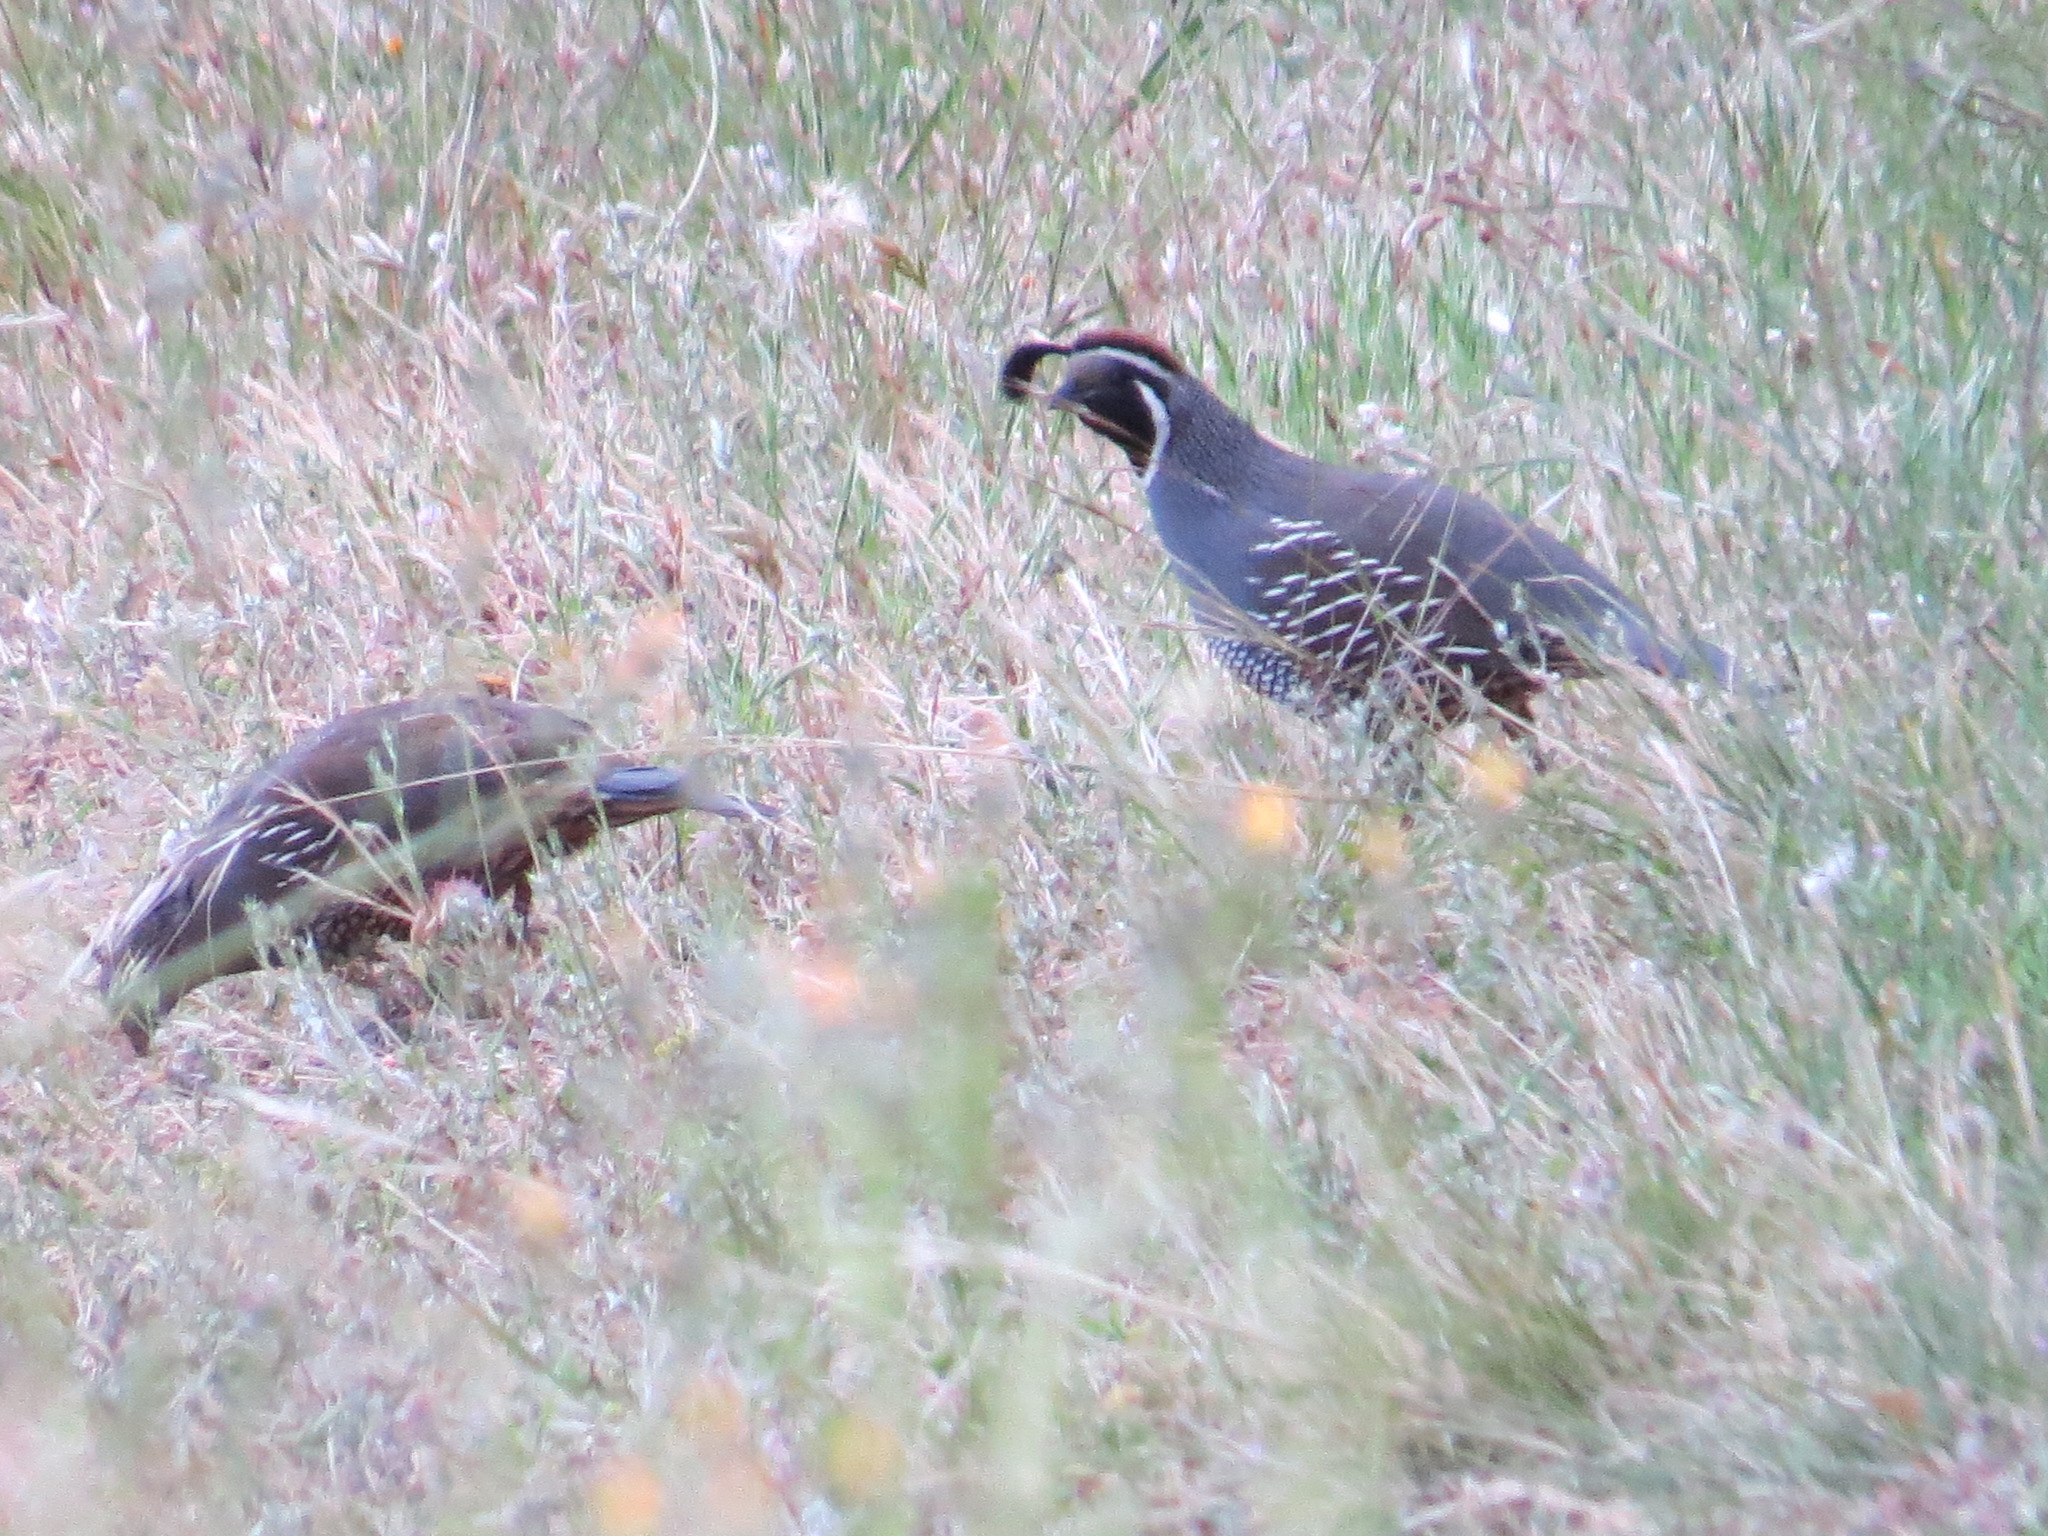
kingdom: Animalia
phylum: Chordata
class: Aves
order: Galliformes
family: Odontophoridae
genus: Callipepla
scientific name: Callipepla californica
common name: California quail
